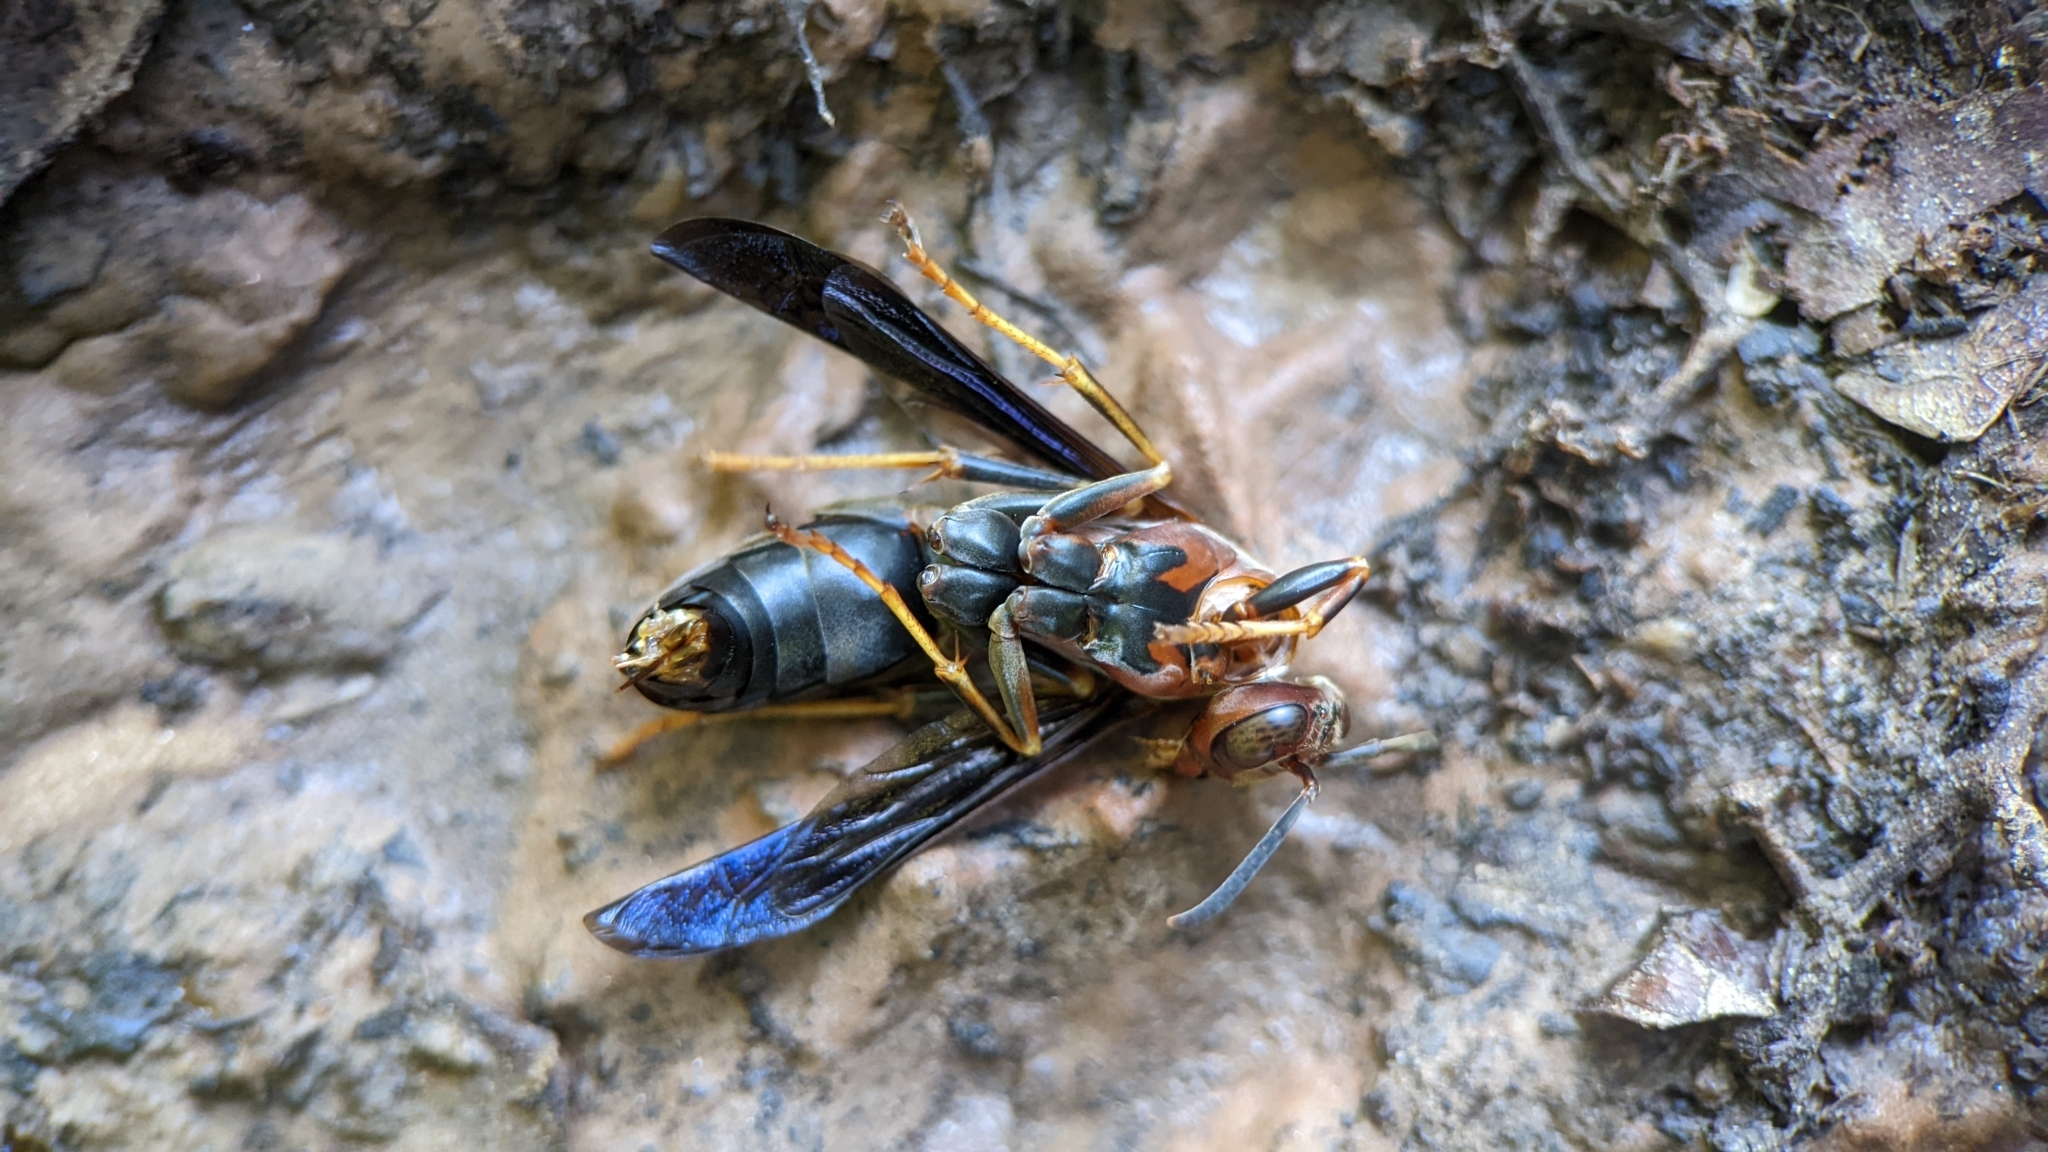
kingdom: Animalia
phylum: Arthropoda
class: Insecta
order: Hymenoptera
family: Eumenidae
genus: Polistes
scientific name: Polistes metricus
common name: Metric paper wasp
